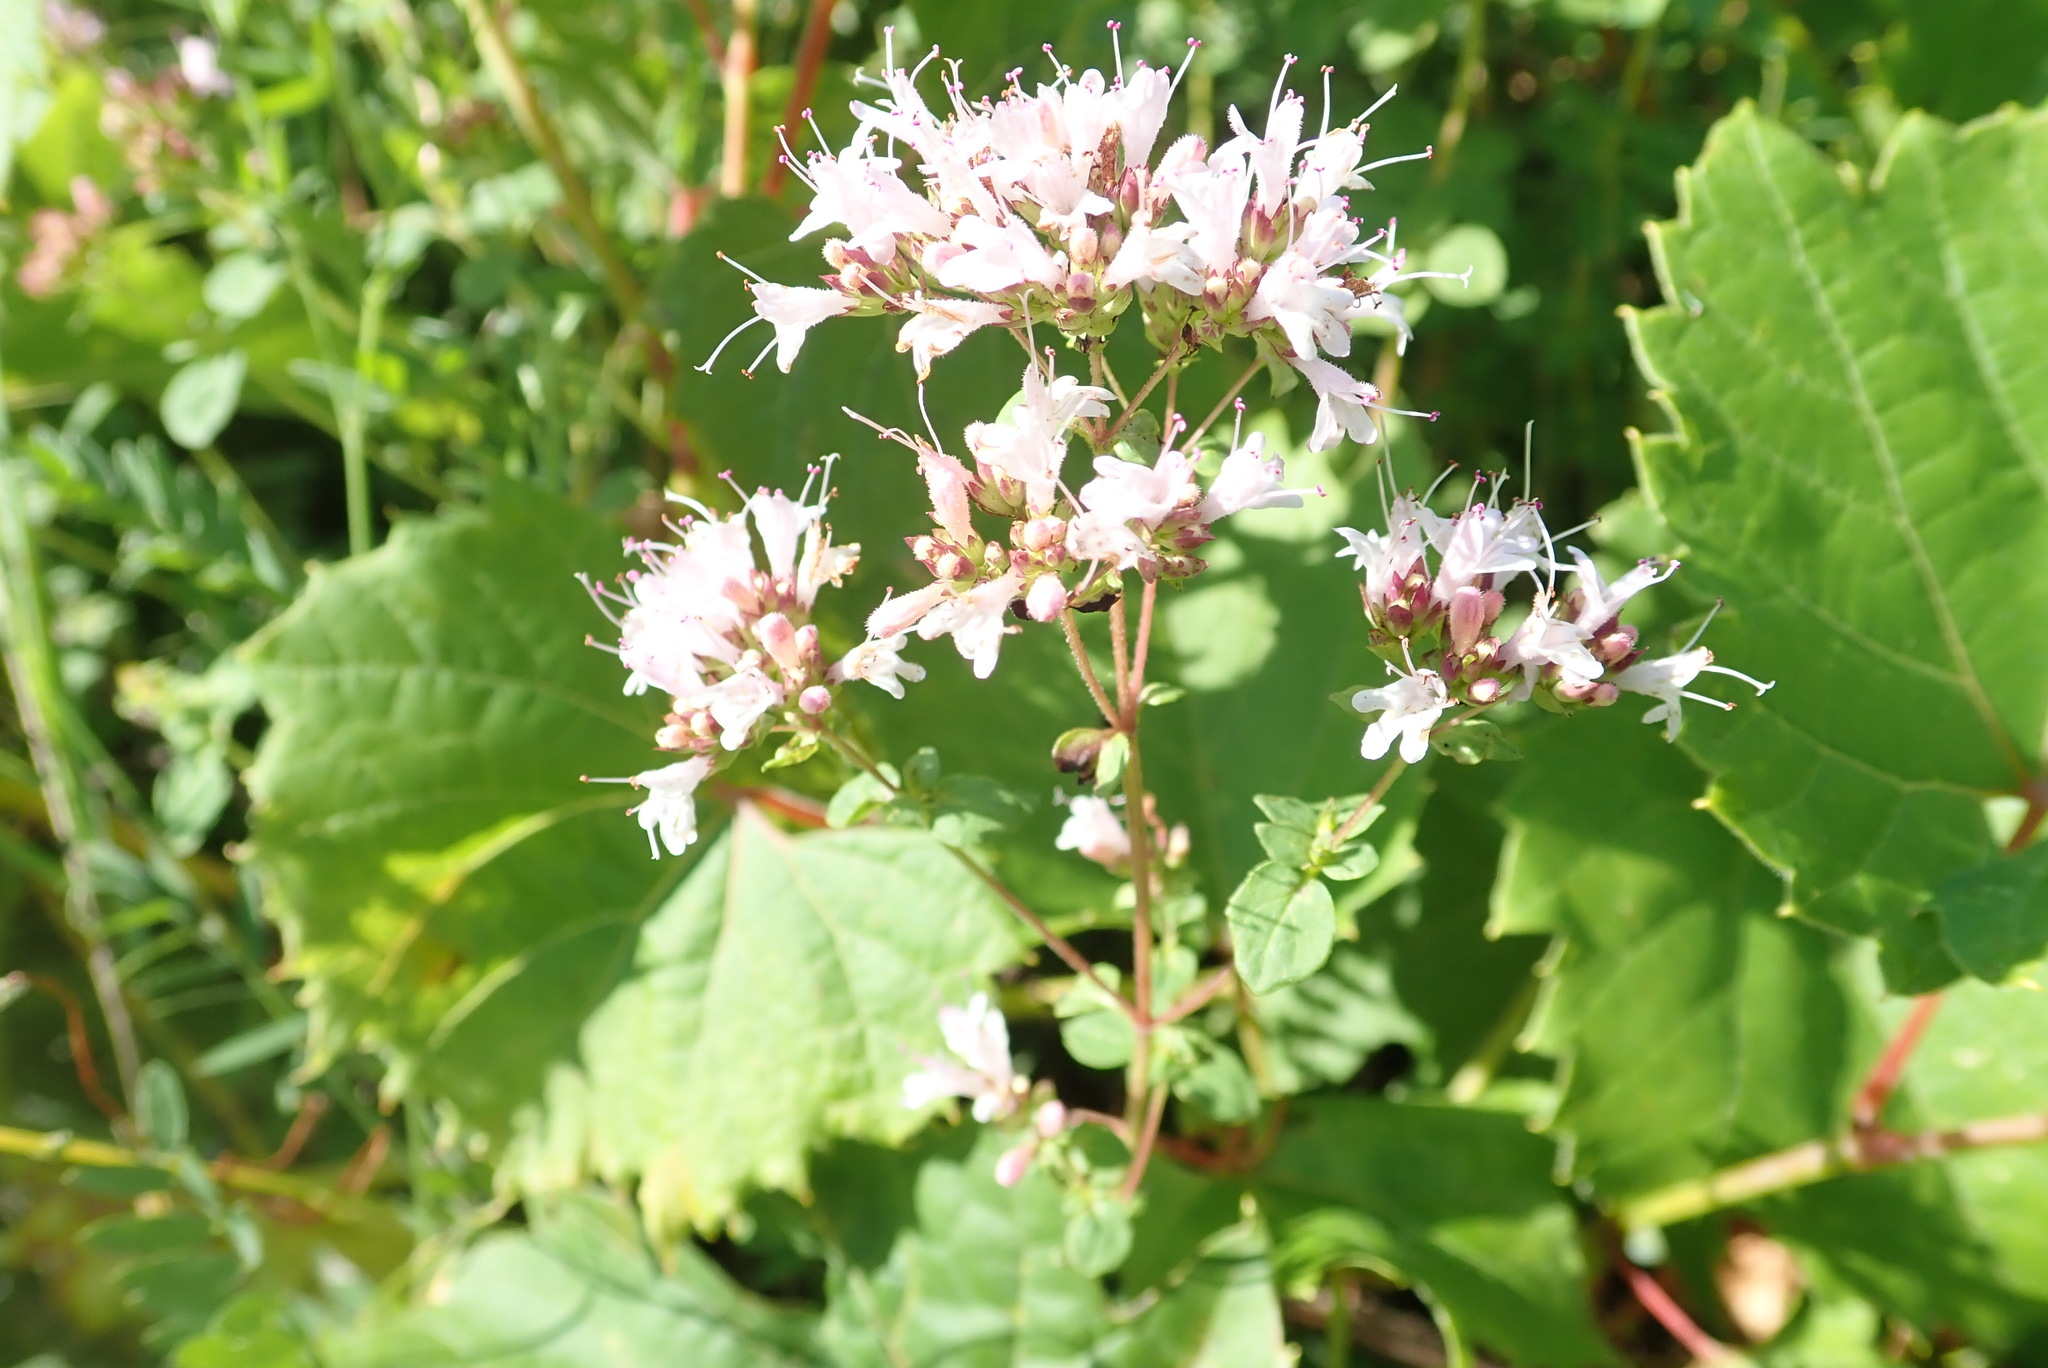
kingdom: Plantae
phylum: Tracheophyta
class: Magnoliopsida
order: Lamiales
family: Lamiaceae
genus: Origanum
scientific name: Origanum vulgare
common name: Wild marjoram
